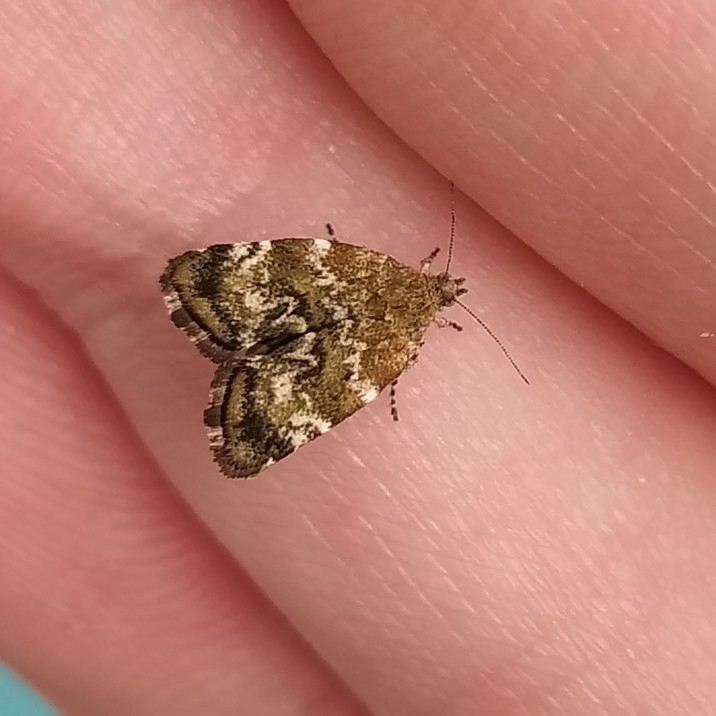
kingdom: Animalia
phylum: Arthropoda
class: Insecta
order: Lepidoptera
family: Choreutidae
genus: Choreutis
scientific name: Choreutis diana
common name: Inverness twitcher
